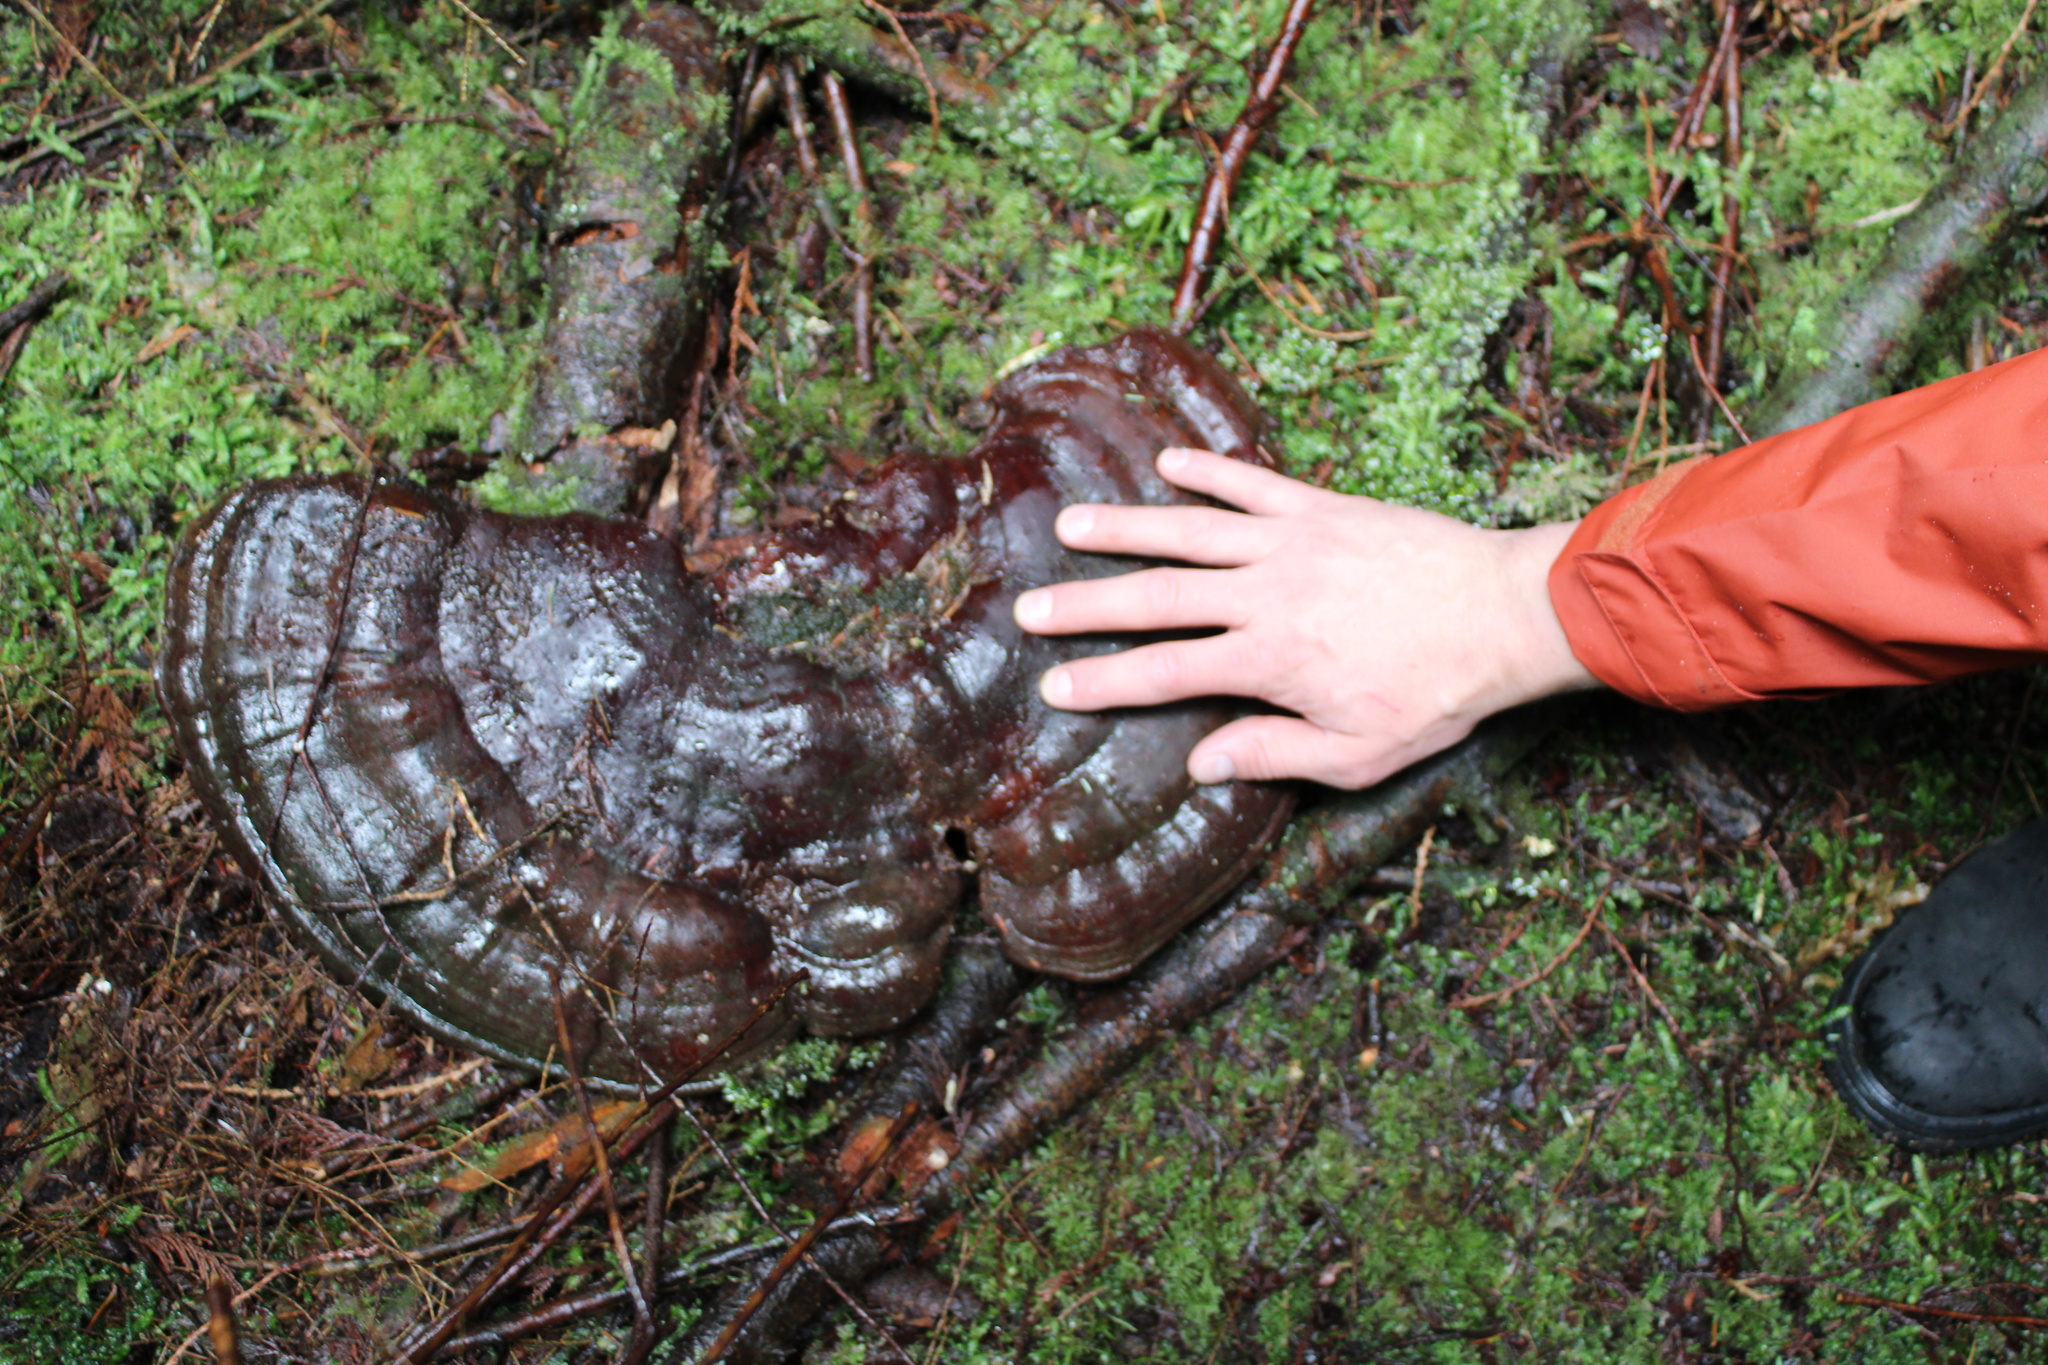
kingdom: Fungi
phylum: Basidiomycota
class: Agaricomycetes
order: Polyporales
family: Polyporaceae
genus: Ganoderma
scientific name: Ganoderma oregonense
